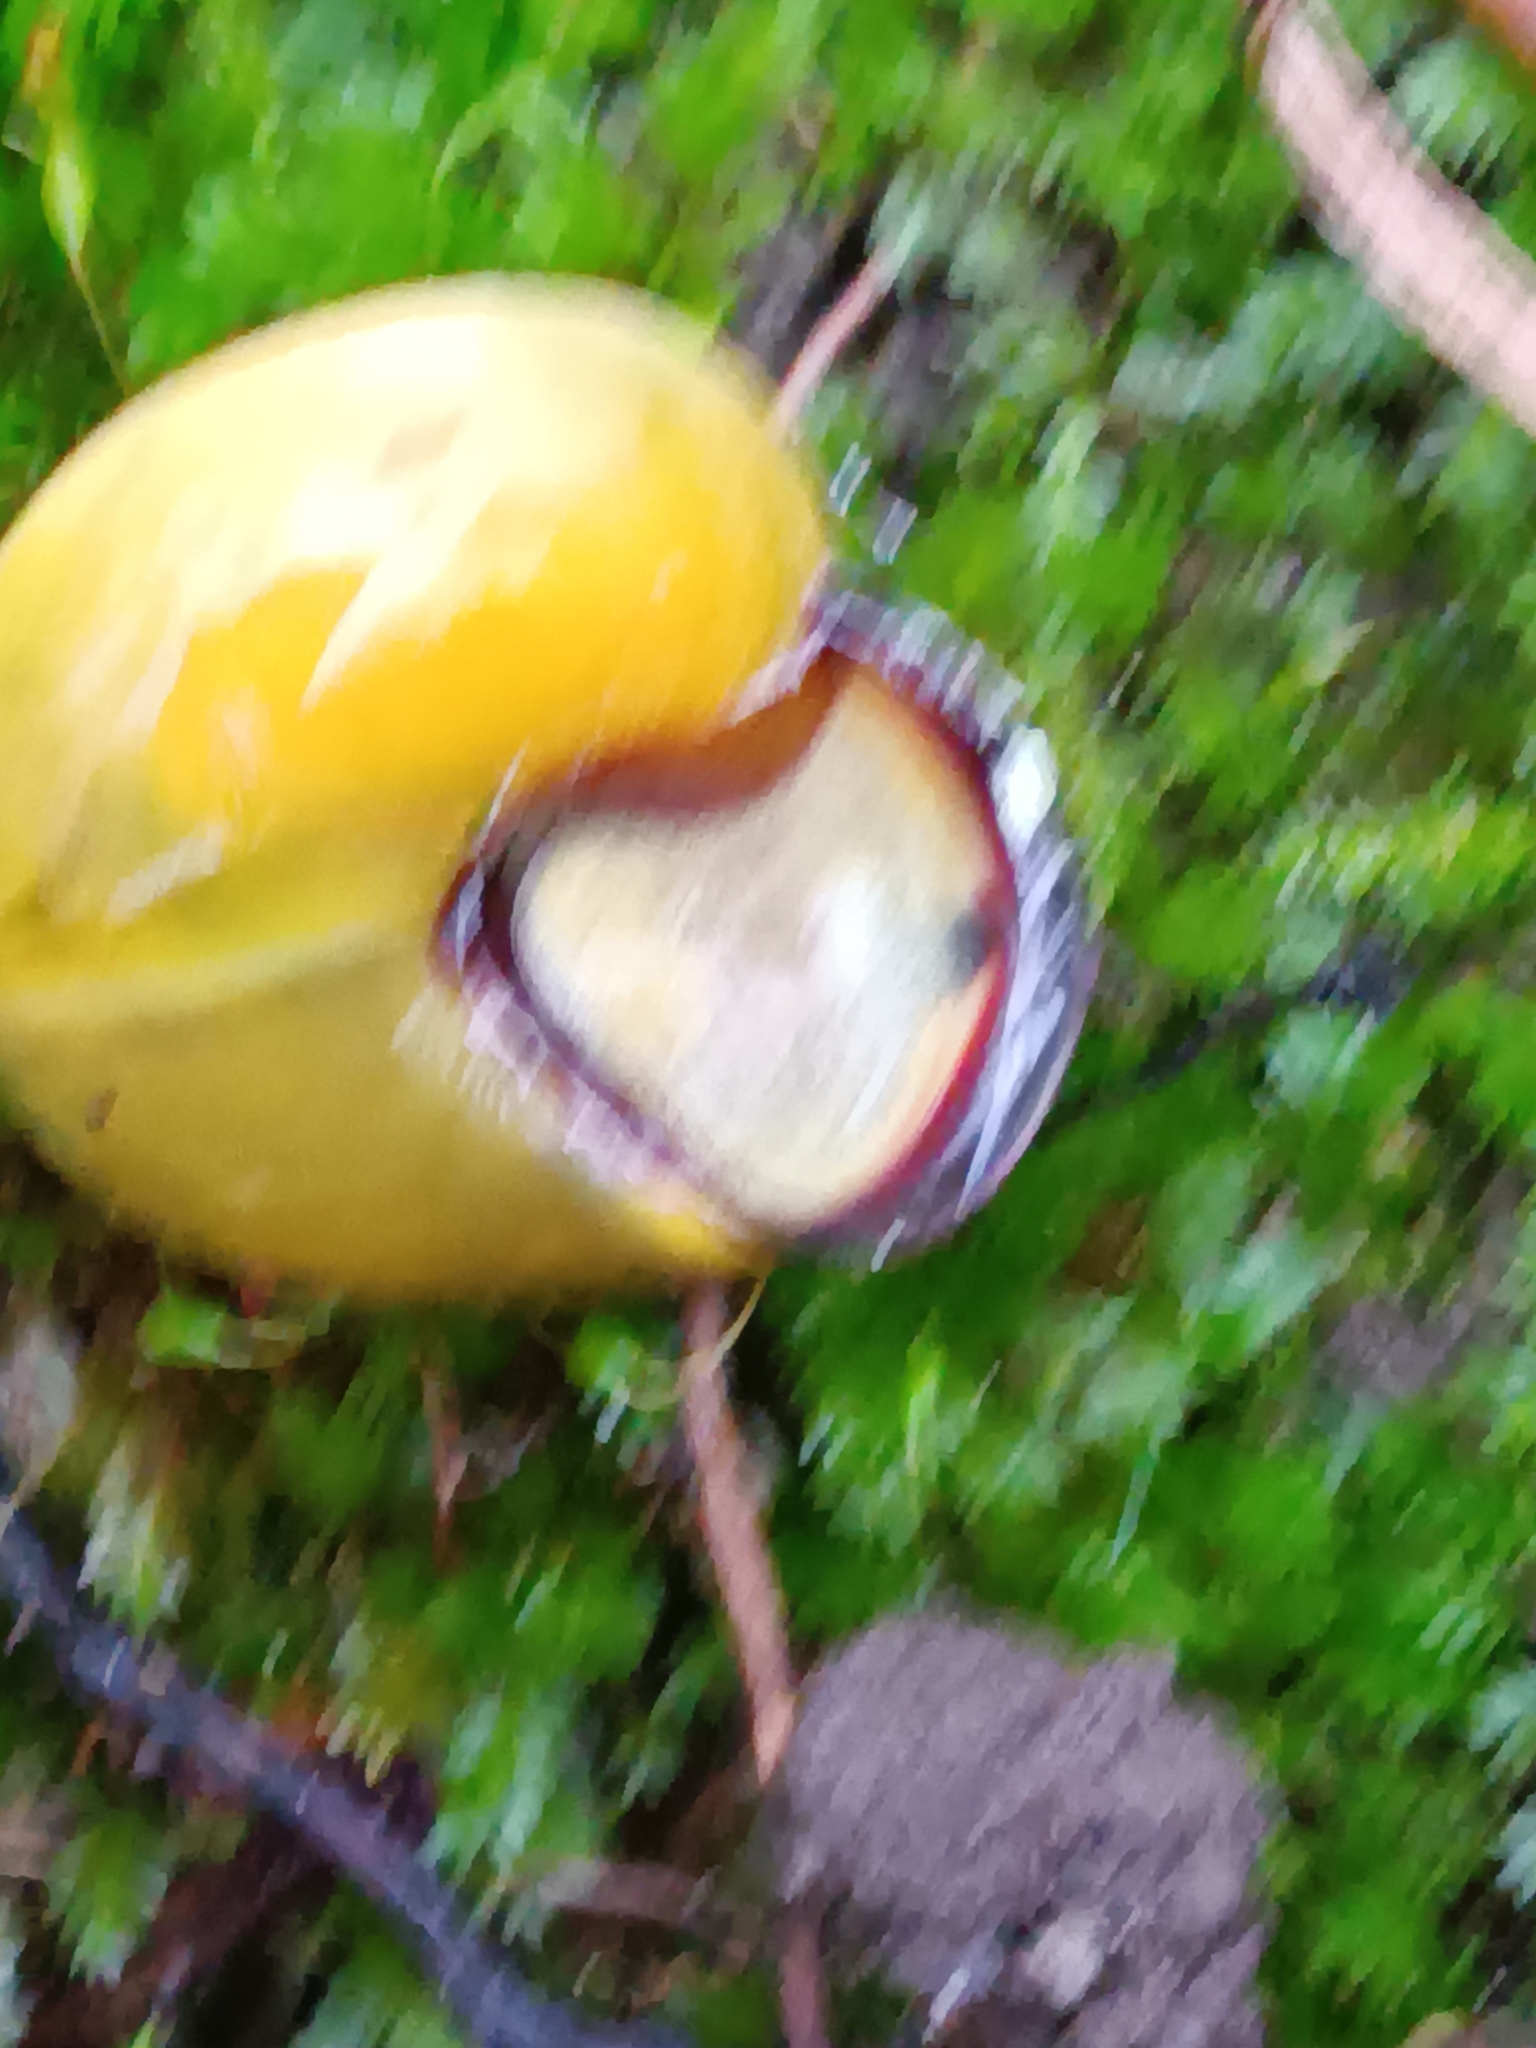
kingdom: Animalia
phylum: Mollusca
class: Gastropoda
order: Stylommatophora
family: Helicidae
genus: Cepaea
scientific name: Cepaea nemoralis
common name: Grovesnail
